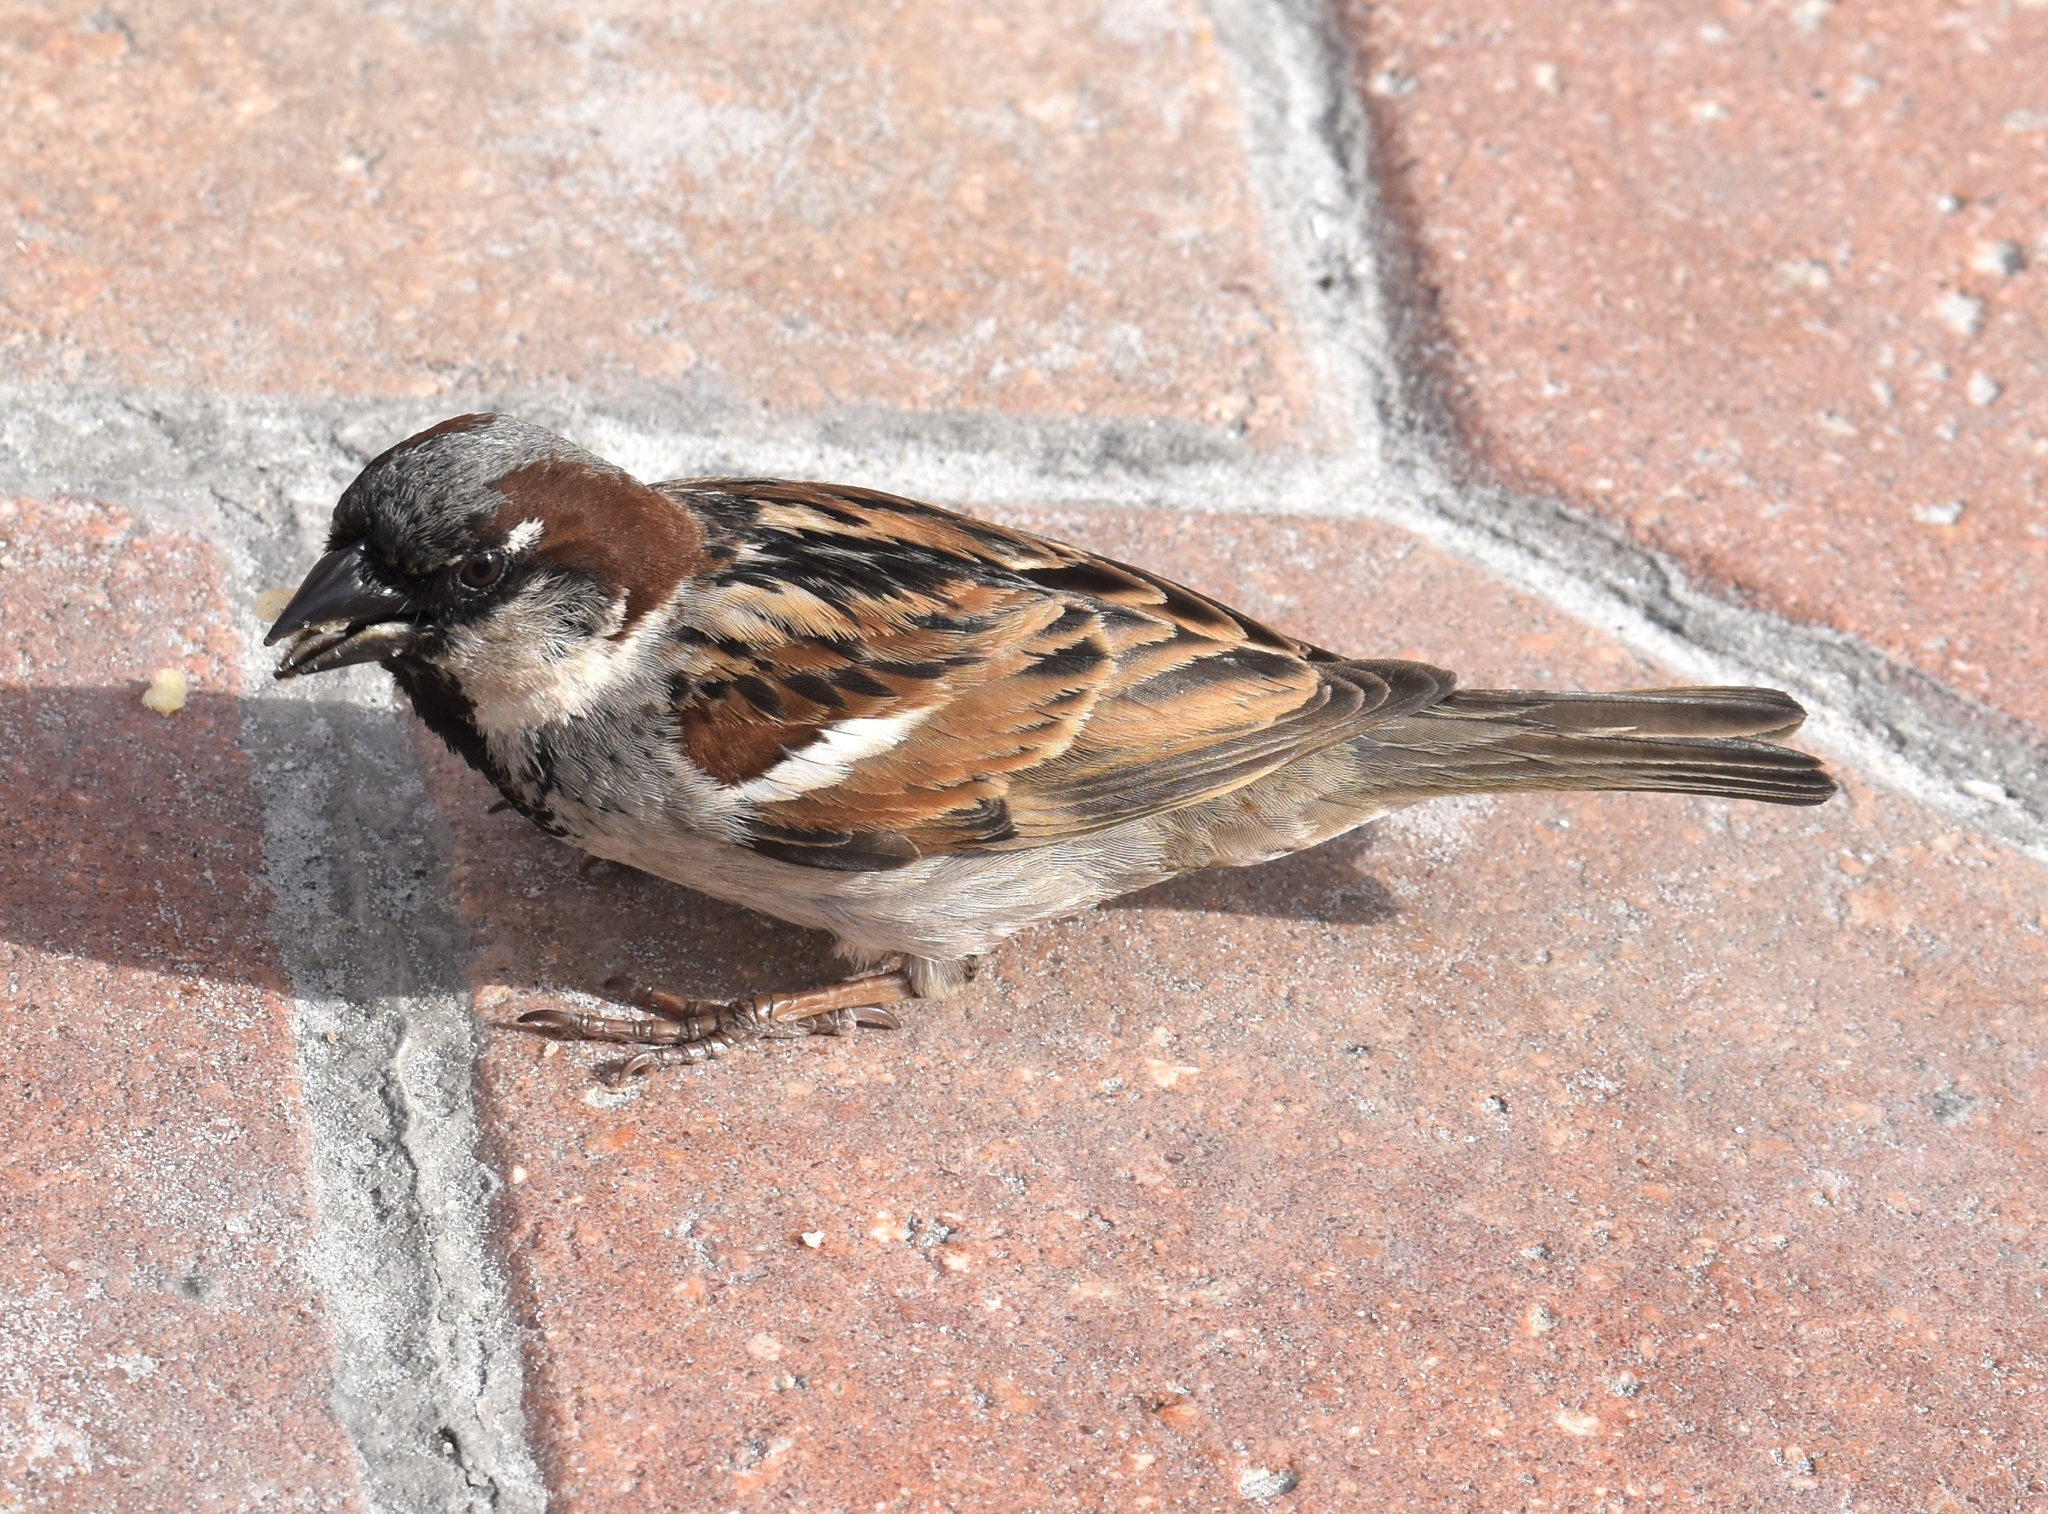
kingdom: Animalia
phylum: Chordata
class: Aves
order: Passeriformes
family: Passeridae
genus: Passer
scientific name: Passer domesticus
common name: House sparrow
